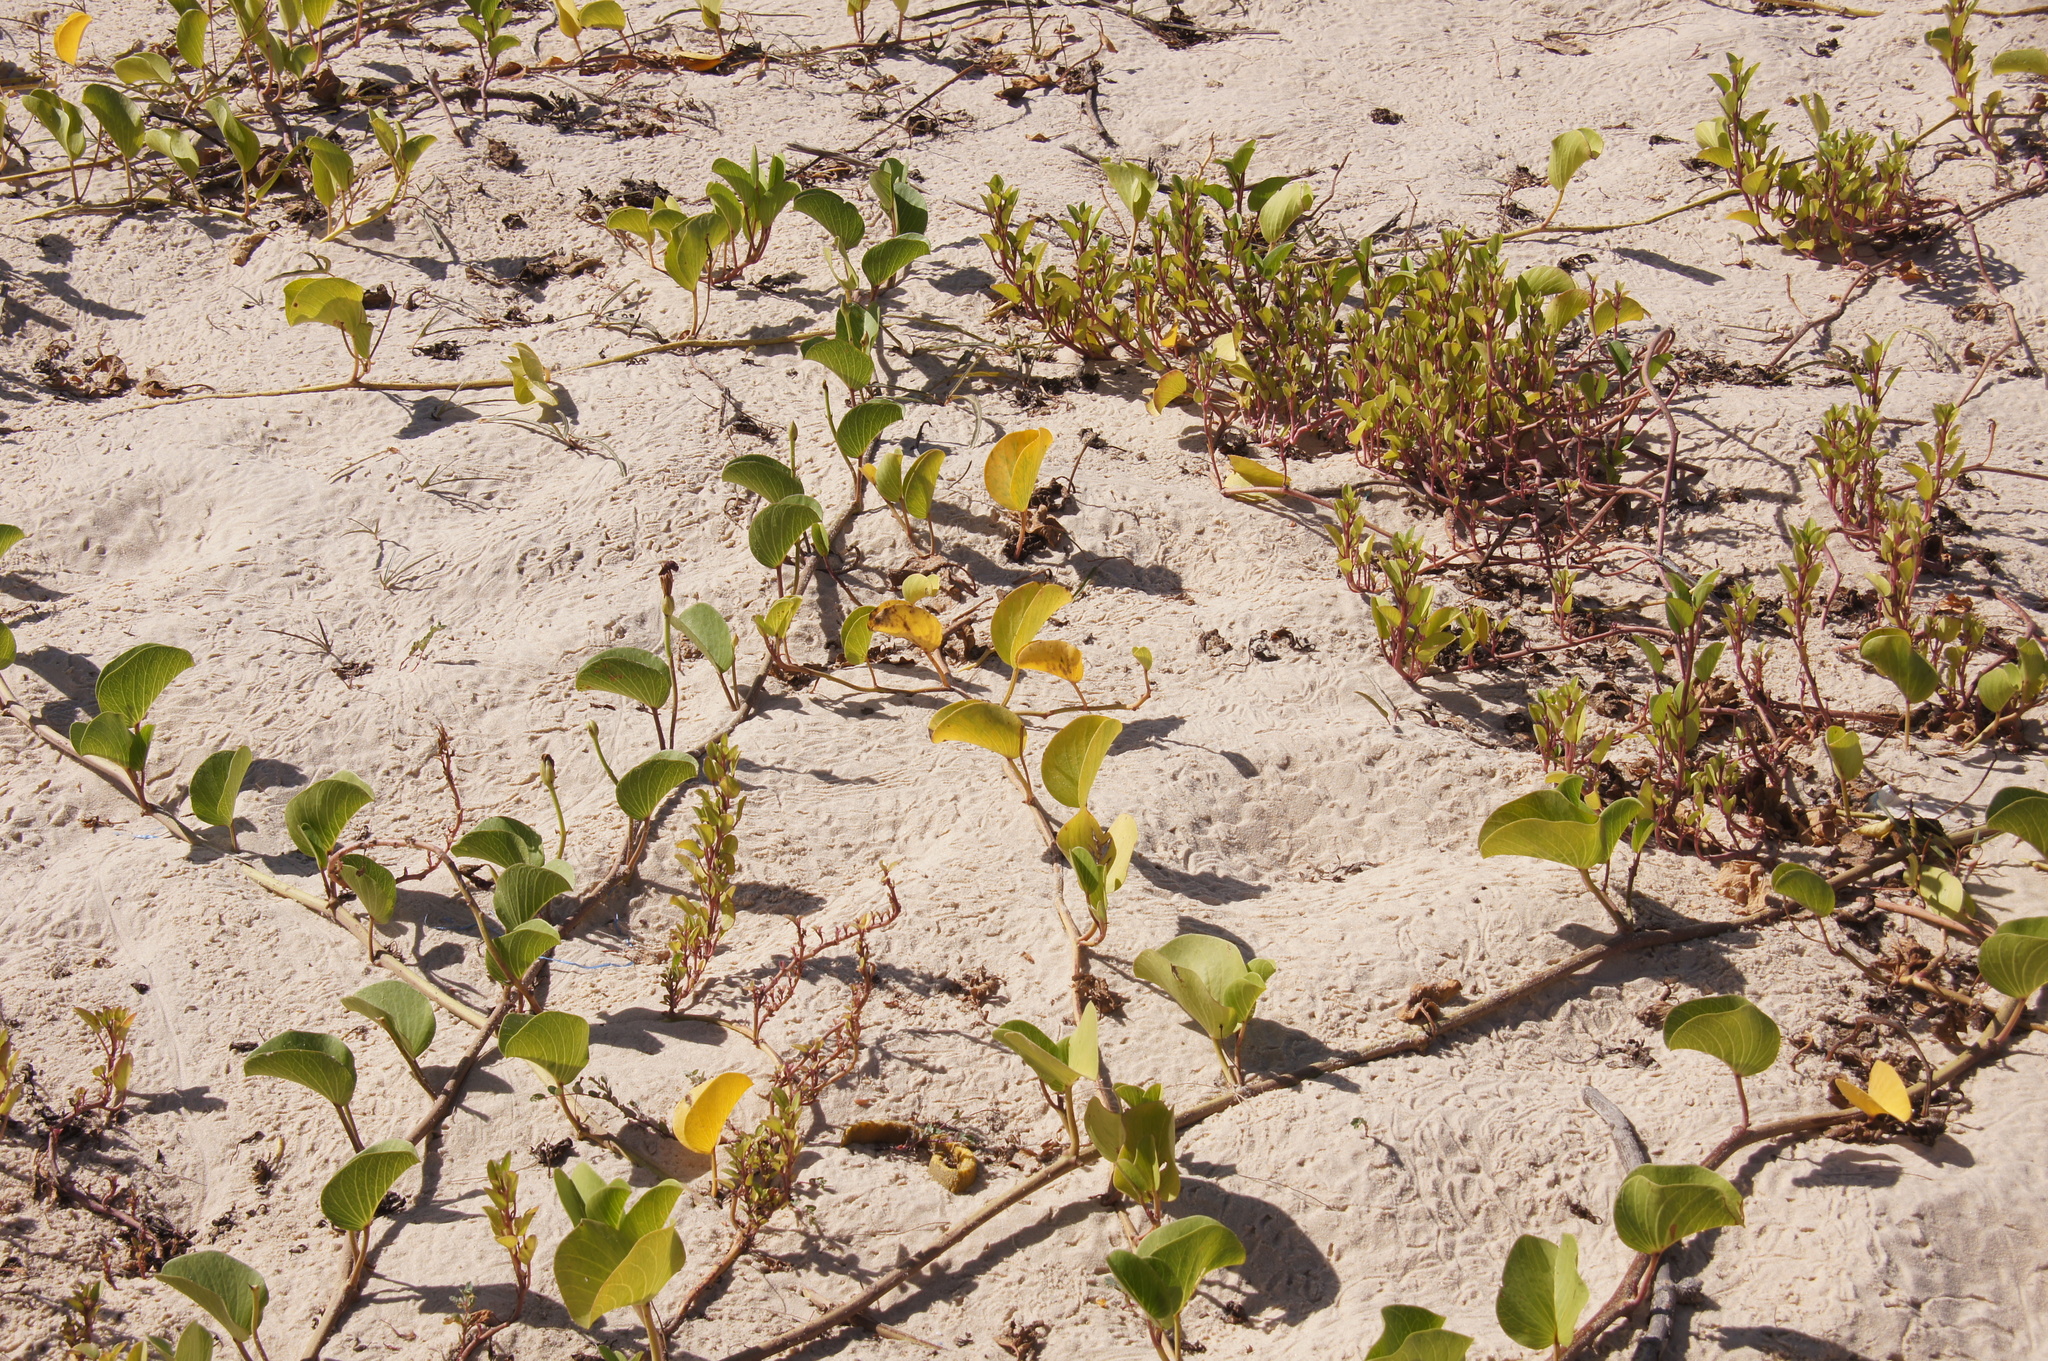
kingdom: Plantae
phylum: Tracheophyta
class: Magnoliopsida
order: Solanales
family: Convolvulaceae
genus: Ipomoea
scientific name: Ipomoea pes-caprae
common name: Beach morning glory
